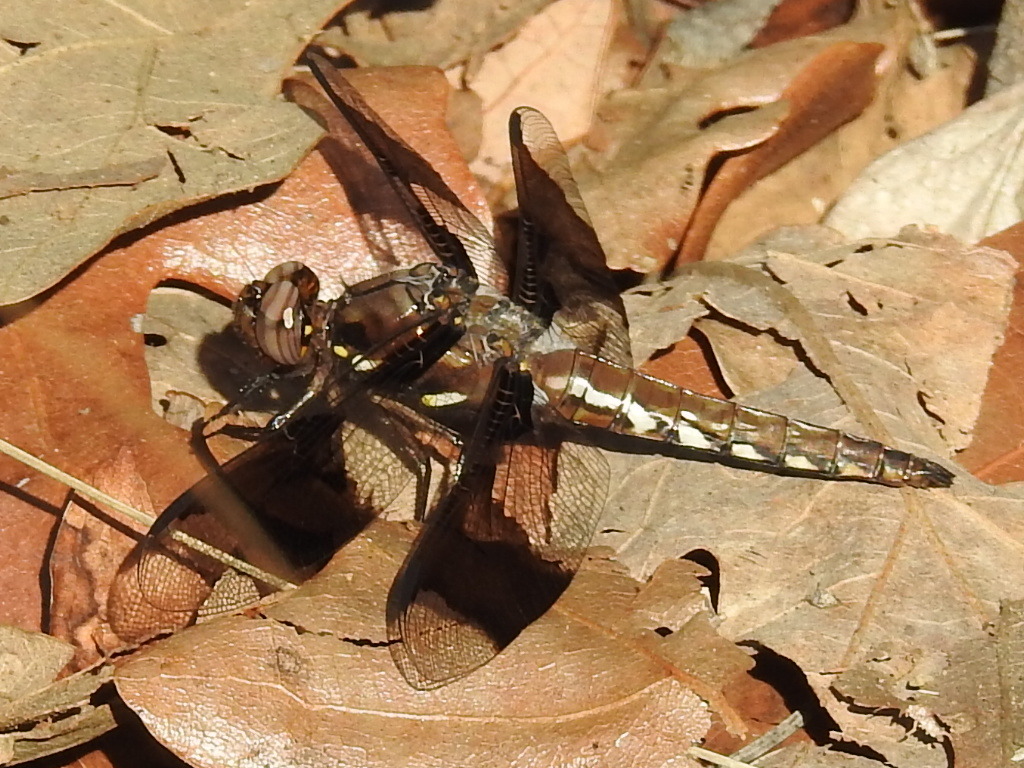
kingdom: Animalia
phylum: Arthropoda
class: Insecta
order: Odonata
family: Libellulidae
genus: Plathemis
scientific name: Plathemis lydia
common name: Common whitetail
